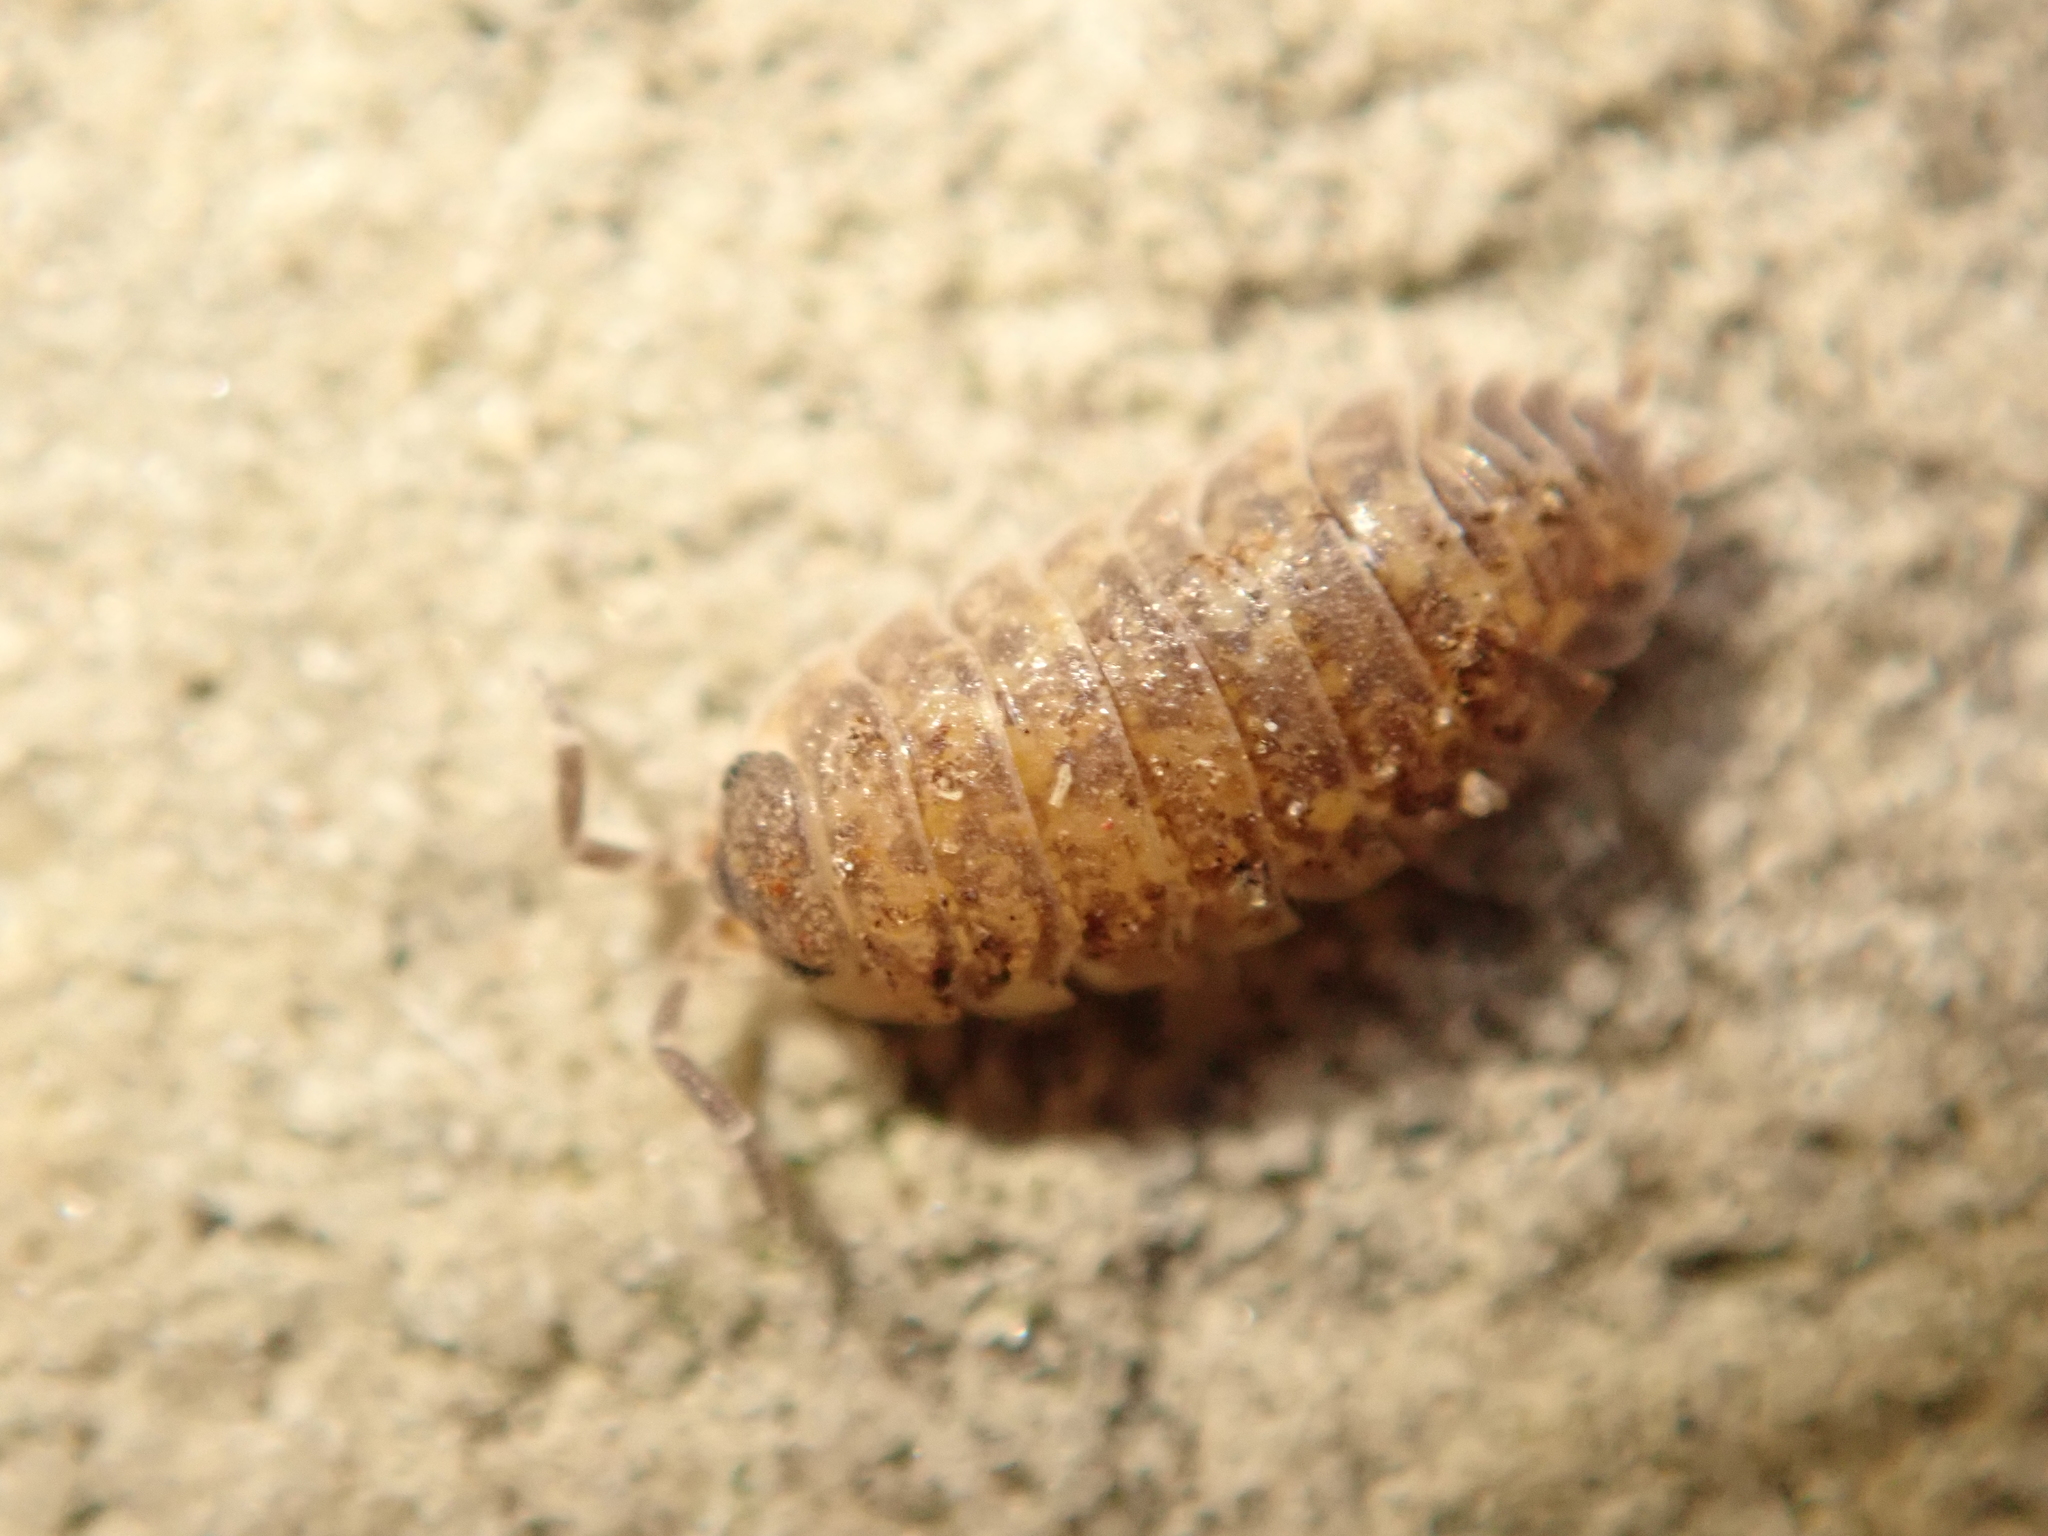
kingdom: Animalia
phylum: Arthropoda
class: Malacostraca
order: Isopoda
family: Porcellionidae
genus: Porcellio
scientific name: Porcellio scaber
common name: Common rough woodlouse
